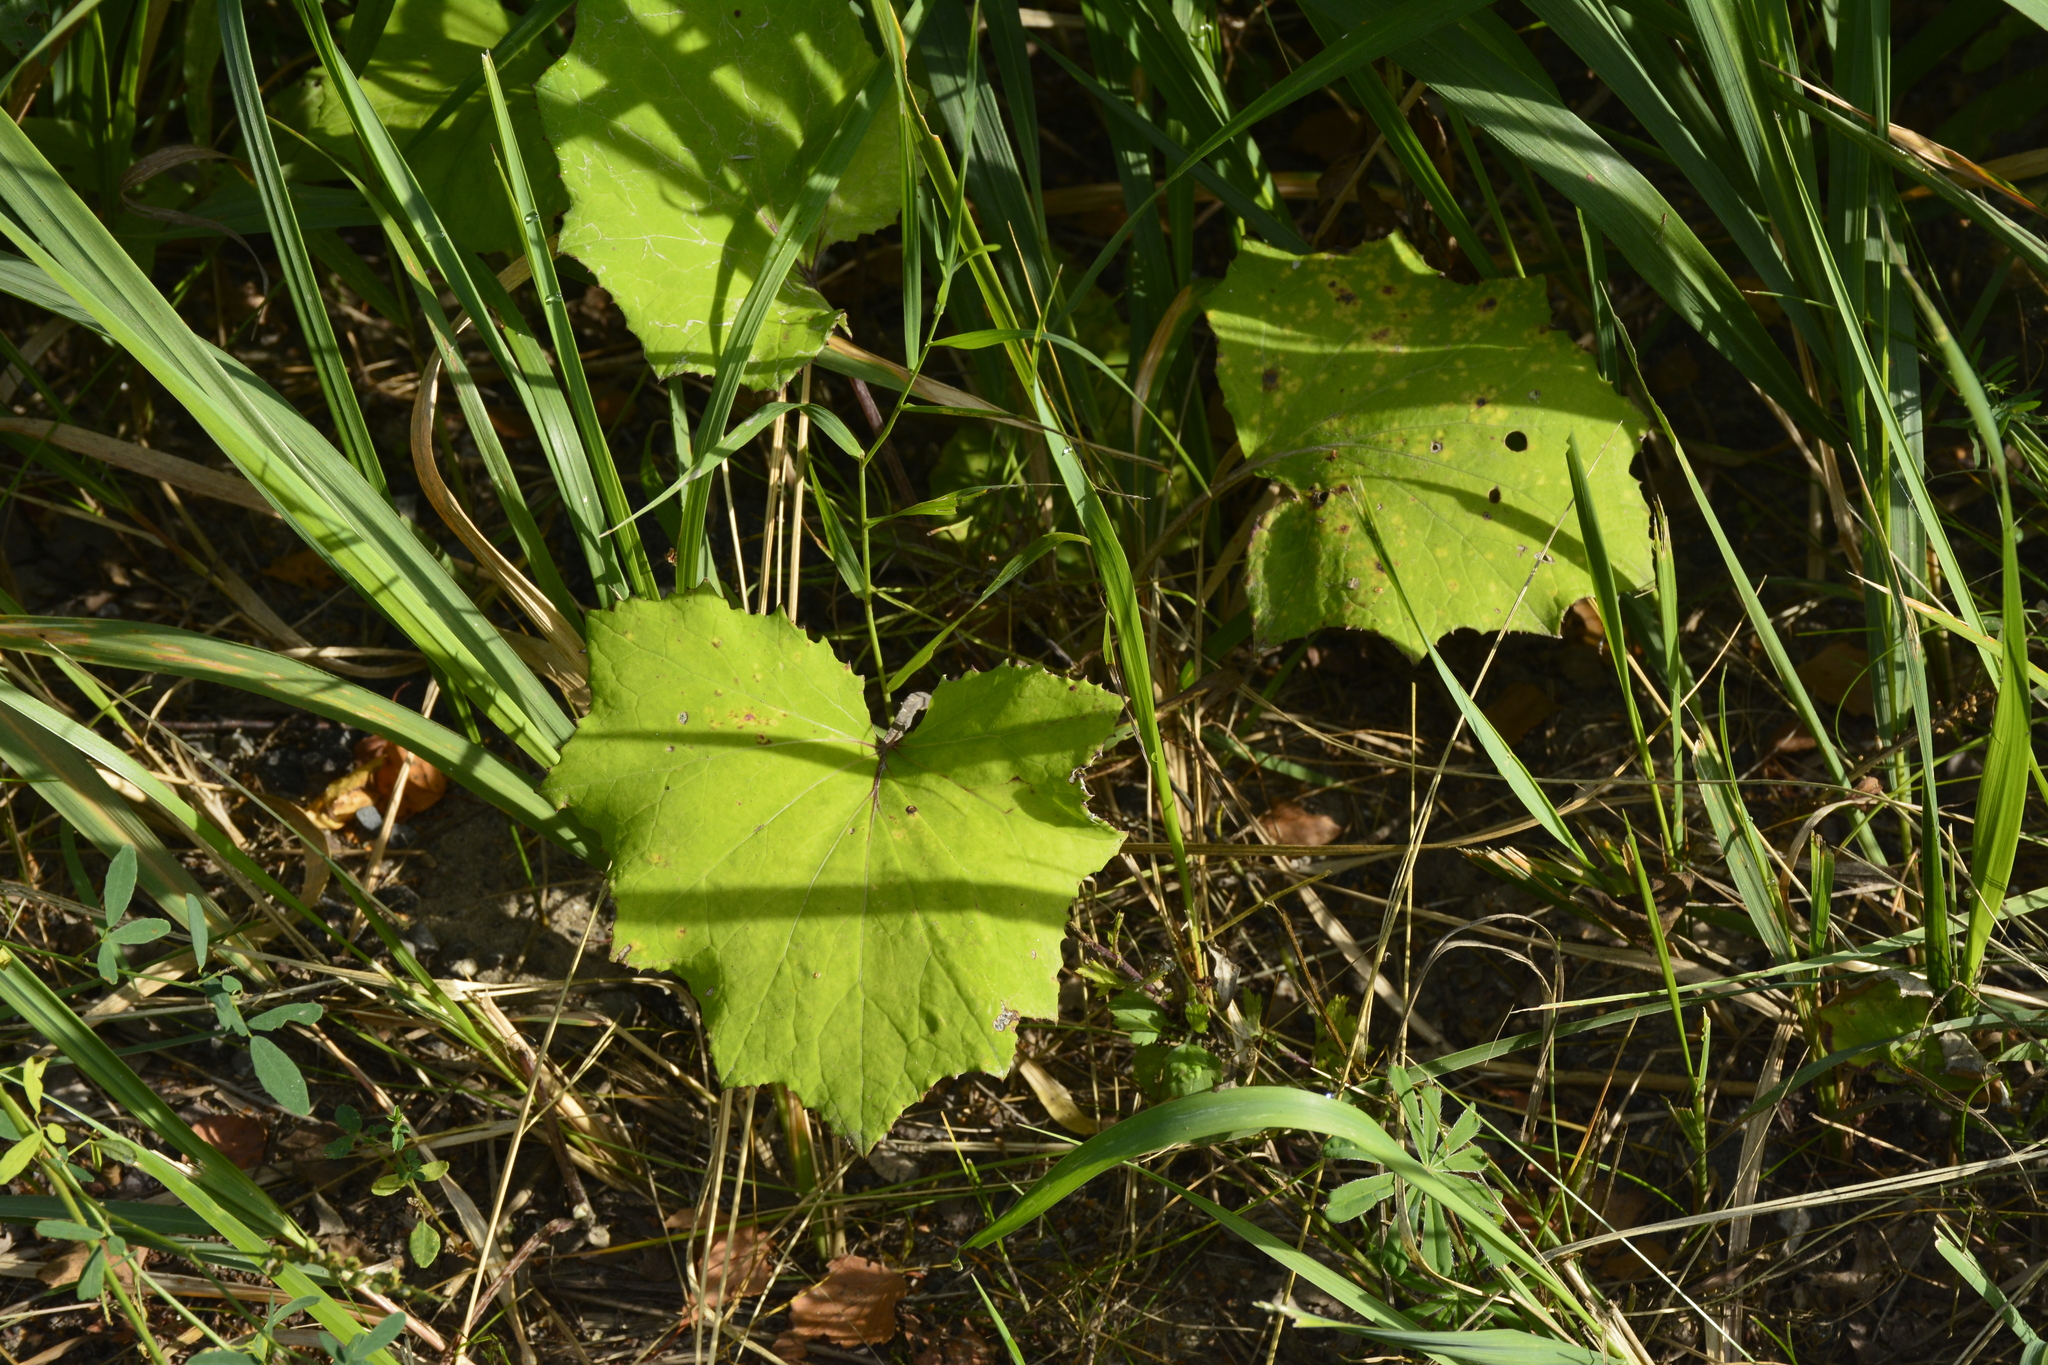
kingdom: Plantae
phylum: Tracheophyta
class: Magnoliopsida
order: Asterales
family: Asteraceae
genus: Tussilago
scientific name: Tussilago farfara
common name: Coltsfoot
